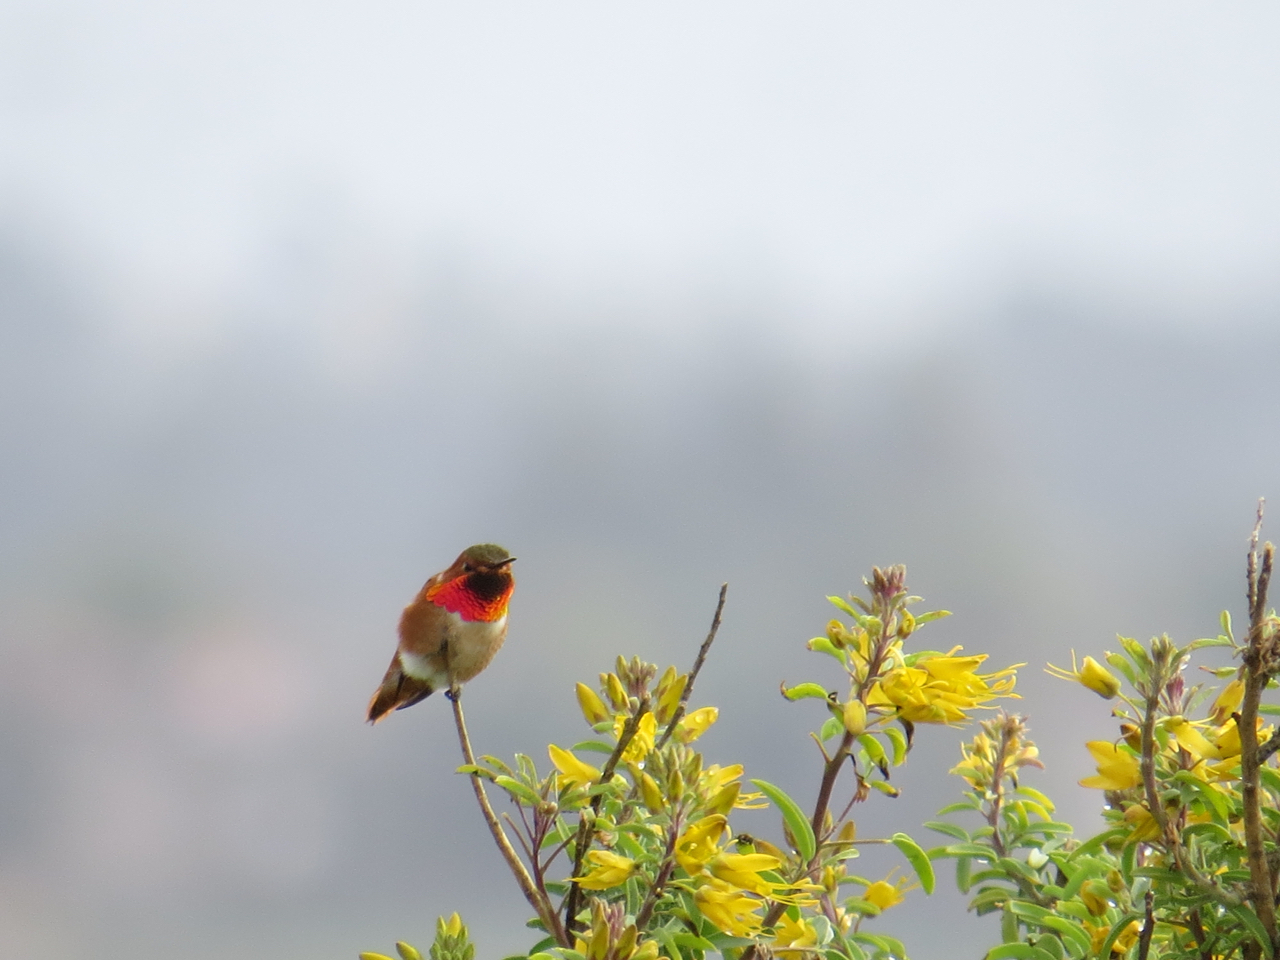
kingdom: Animalia
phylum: Chordata
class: Aves
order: Apodiformes
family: Trochilidae
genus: Selasphorus
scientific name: Selasphorus sasin
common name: Allen's hummingbird
